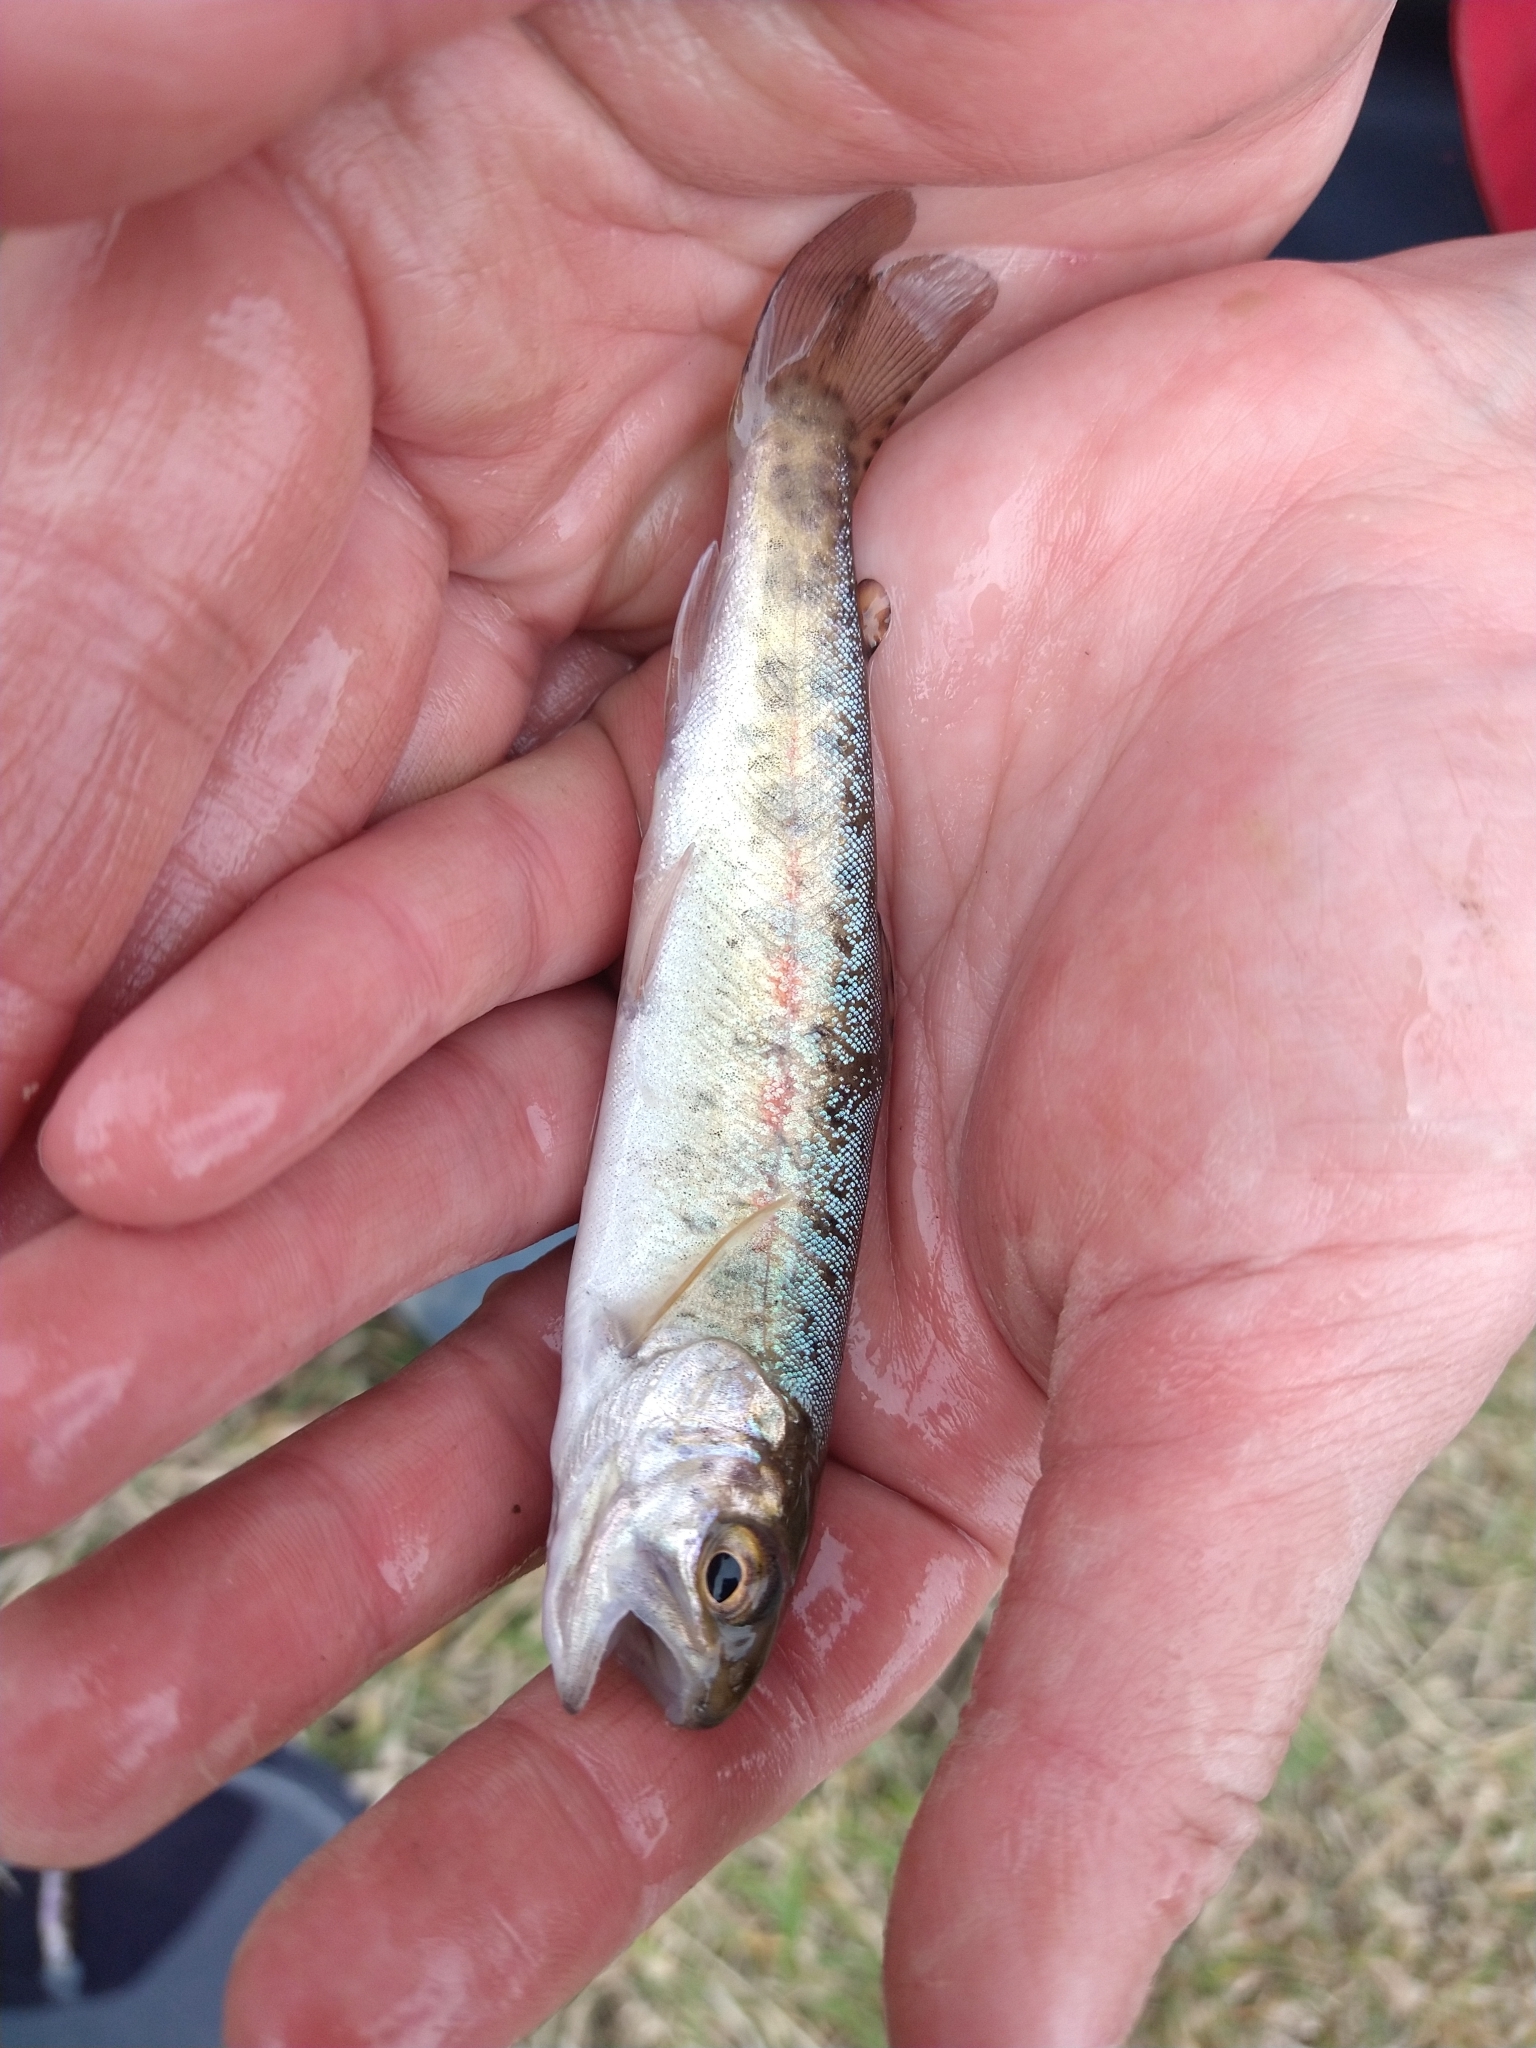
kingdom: Animalia
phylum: Chordata
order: Salmoniformes
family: Salmonidae
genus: Oncorhynchus
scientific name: Oncorhynchus mykiss
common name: Rainbow trout
